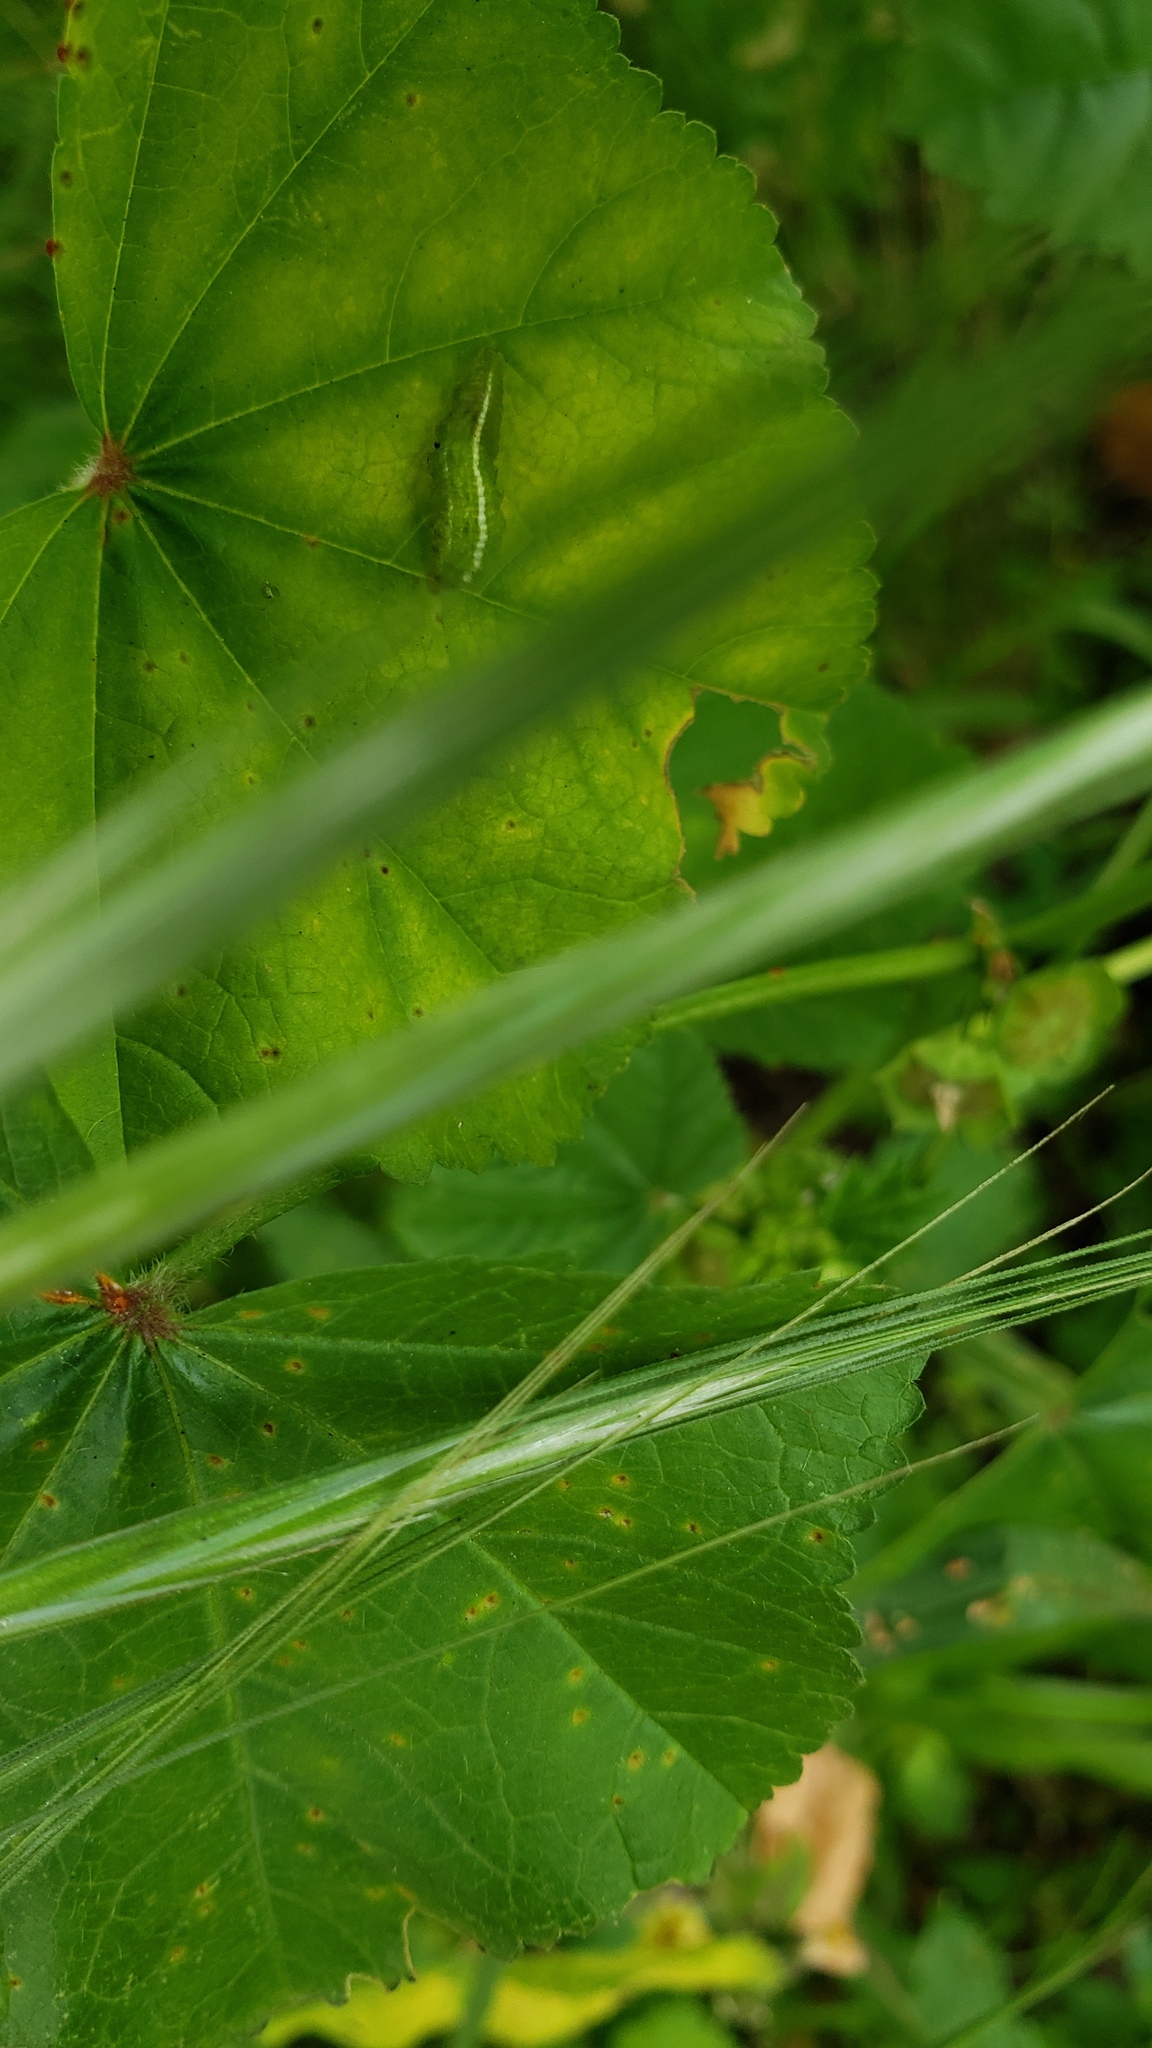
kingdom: Animalia
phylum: Arthropoda
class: Insecta
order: Diptera
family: Syrphidae
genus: Scaeva
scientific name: Scaeva affinis
